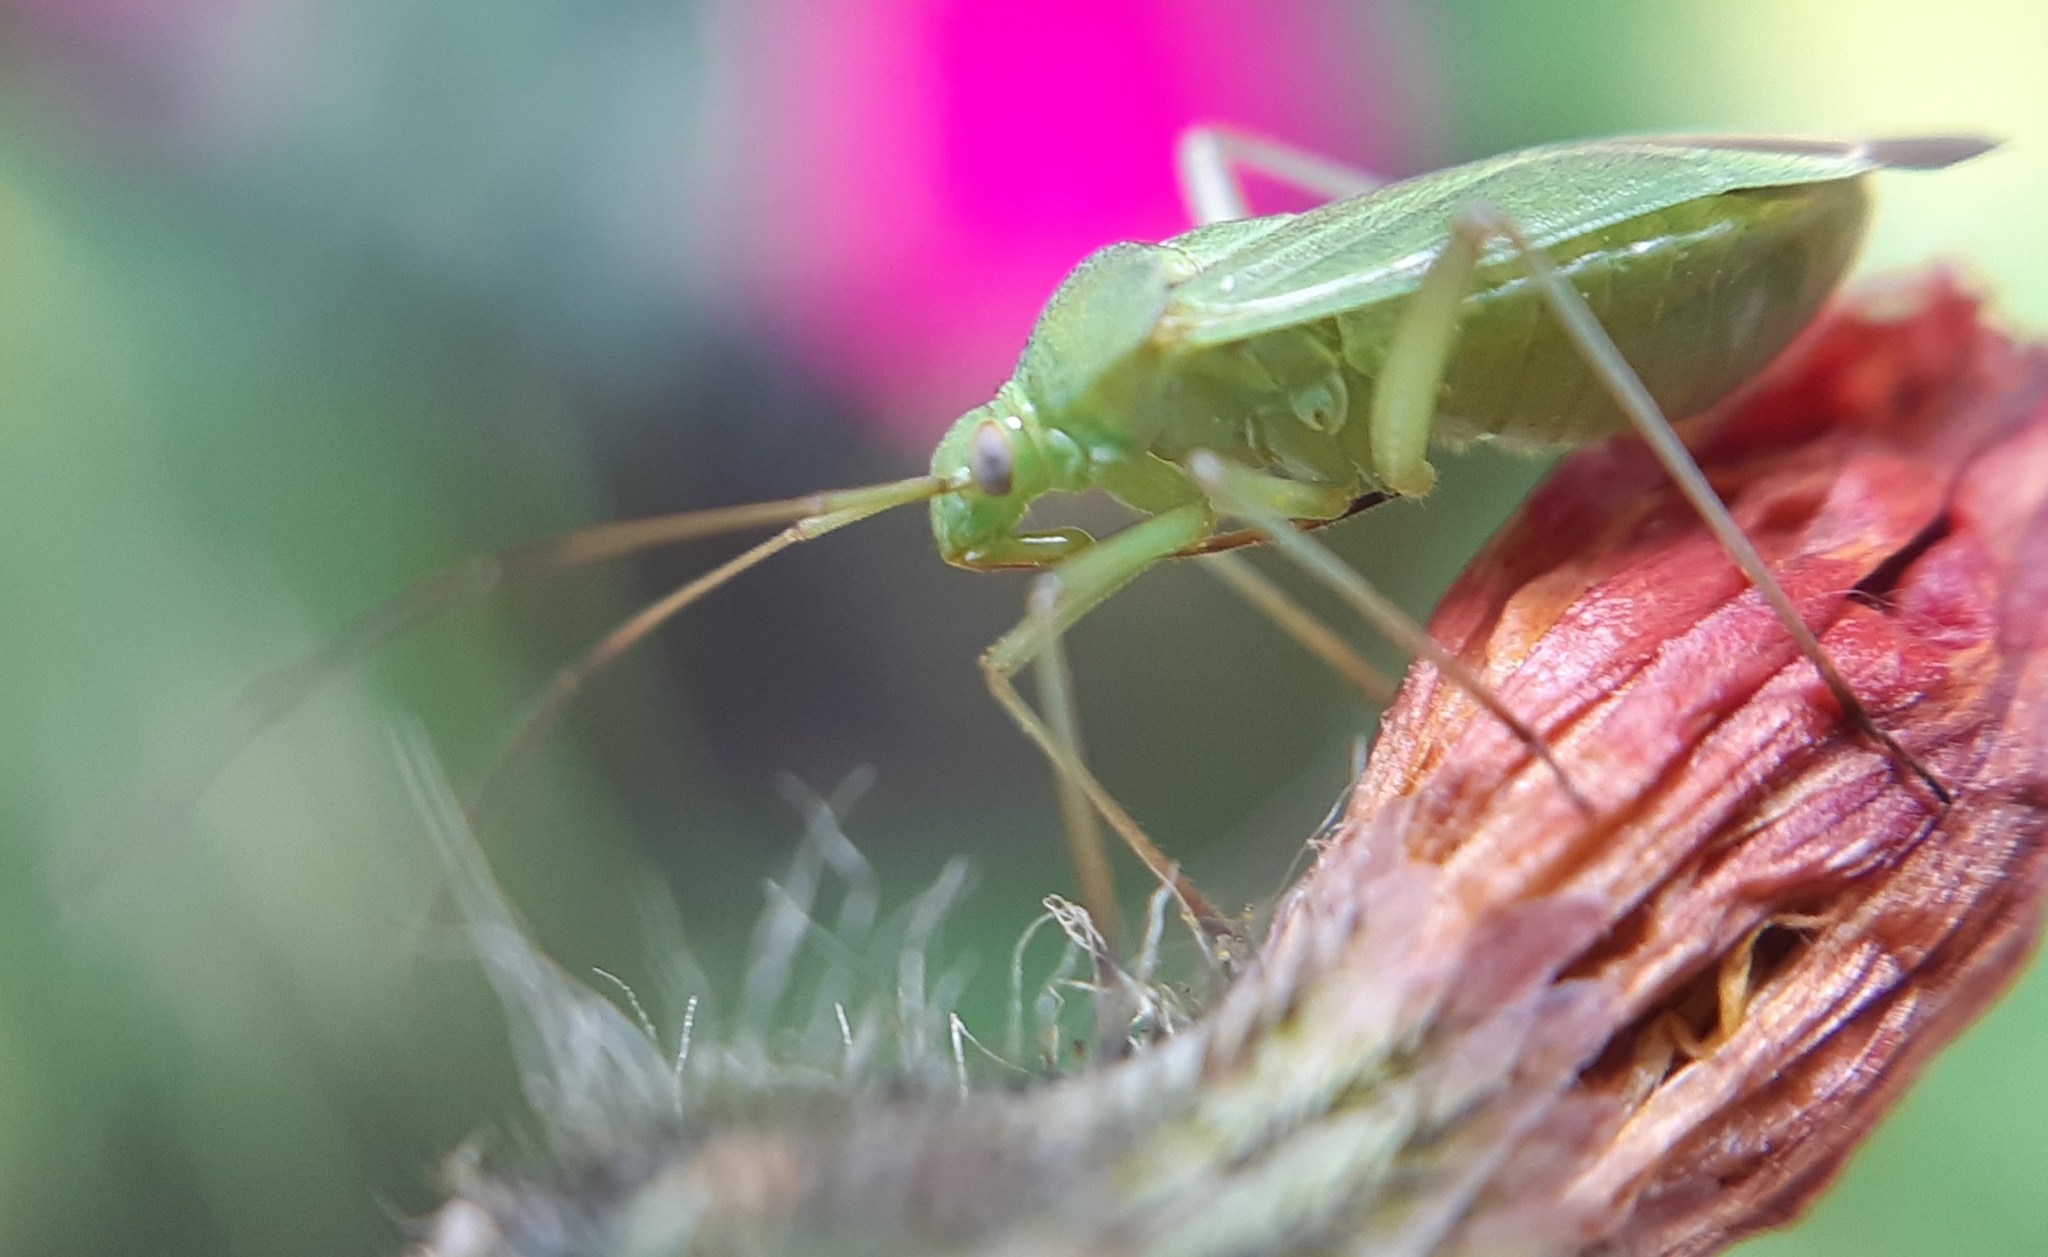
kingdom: Animalia
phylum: Arthropoda
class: Insecta
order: Hemiptera
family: Miridae
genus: Calocoris
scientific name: Calocoris affinis
